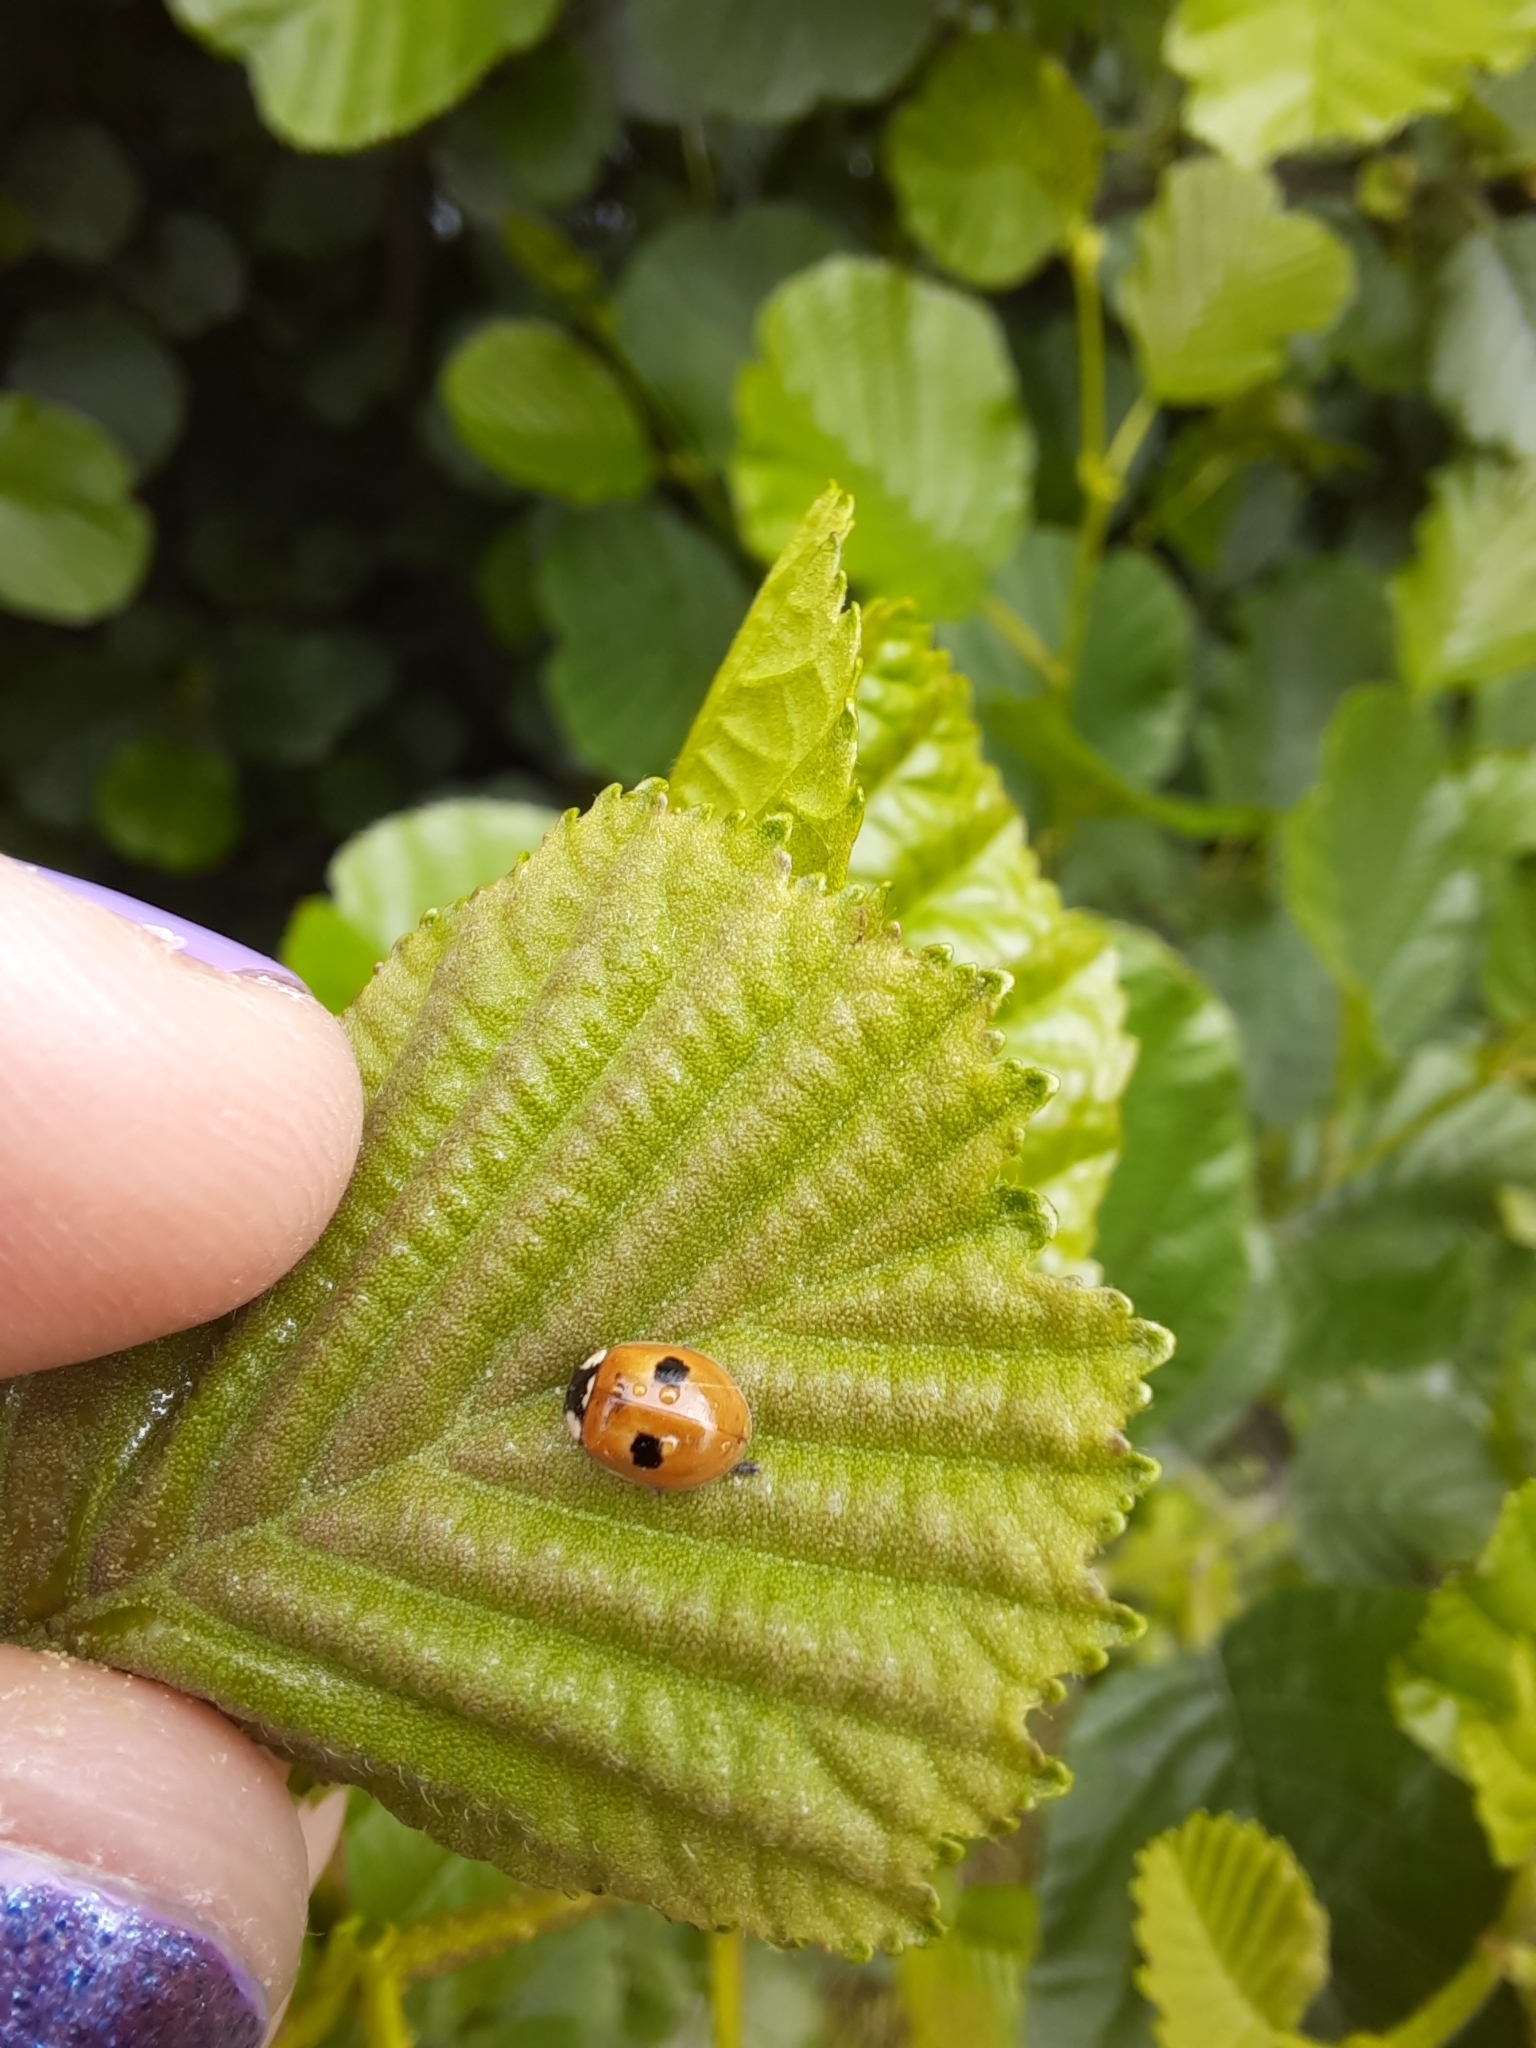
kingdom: Animalia
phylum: Arthropoda
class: Insecta
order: Coleoptera
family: Coccinellidae
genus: Adalia
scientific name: Adalia bipunctata
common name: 2-spot ladybird
